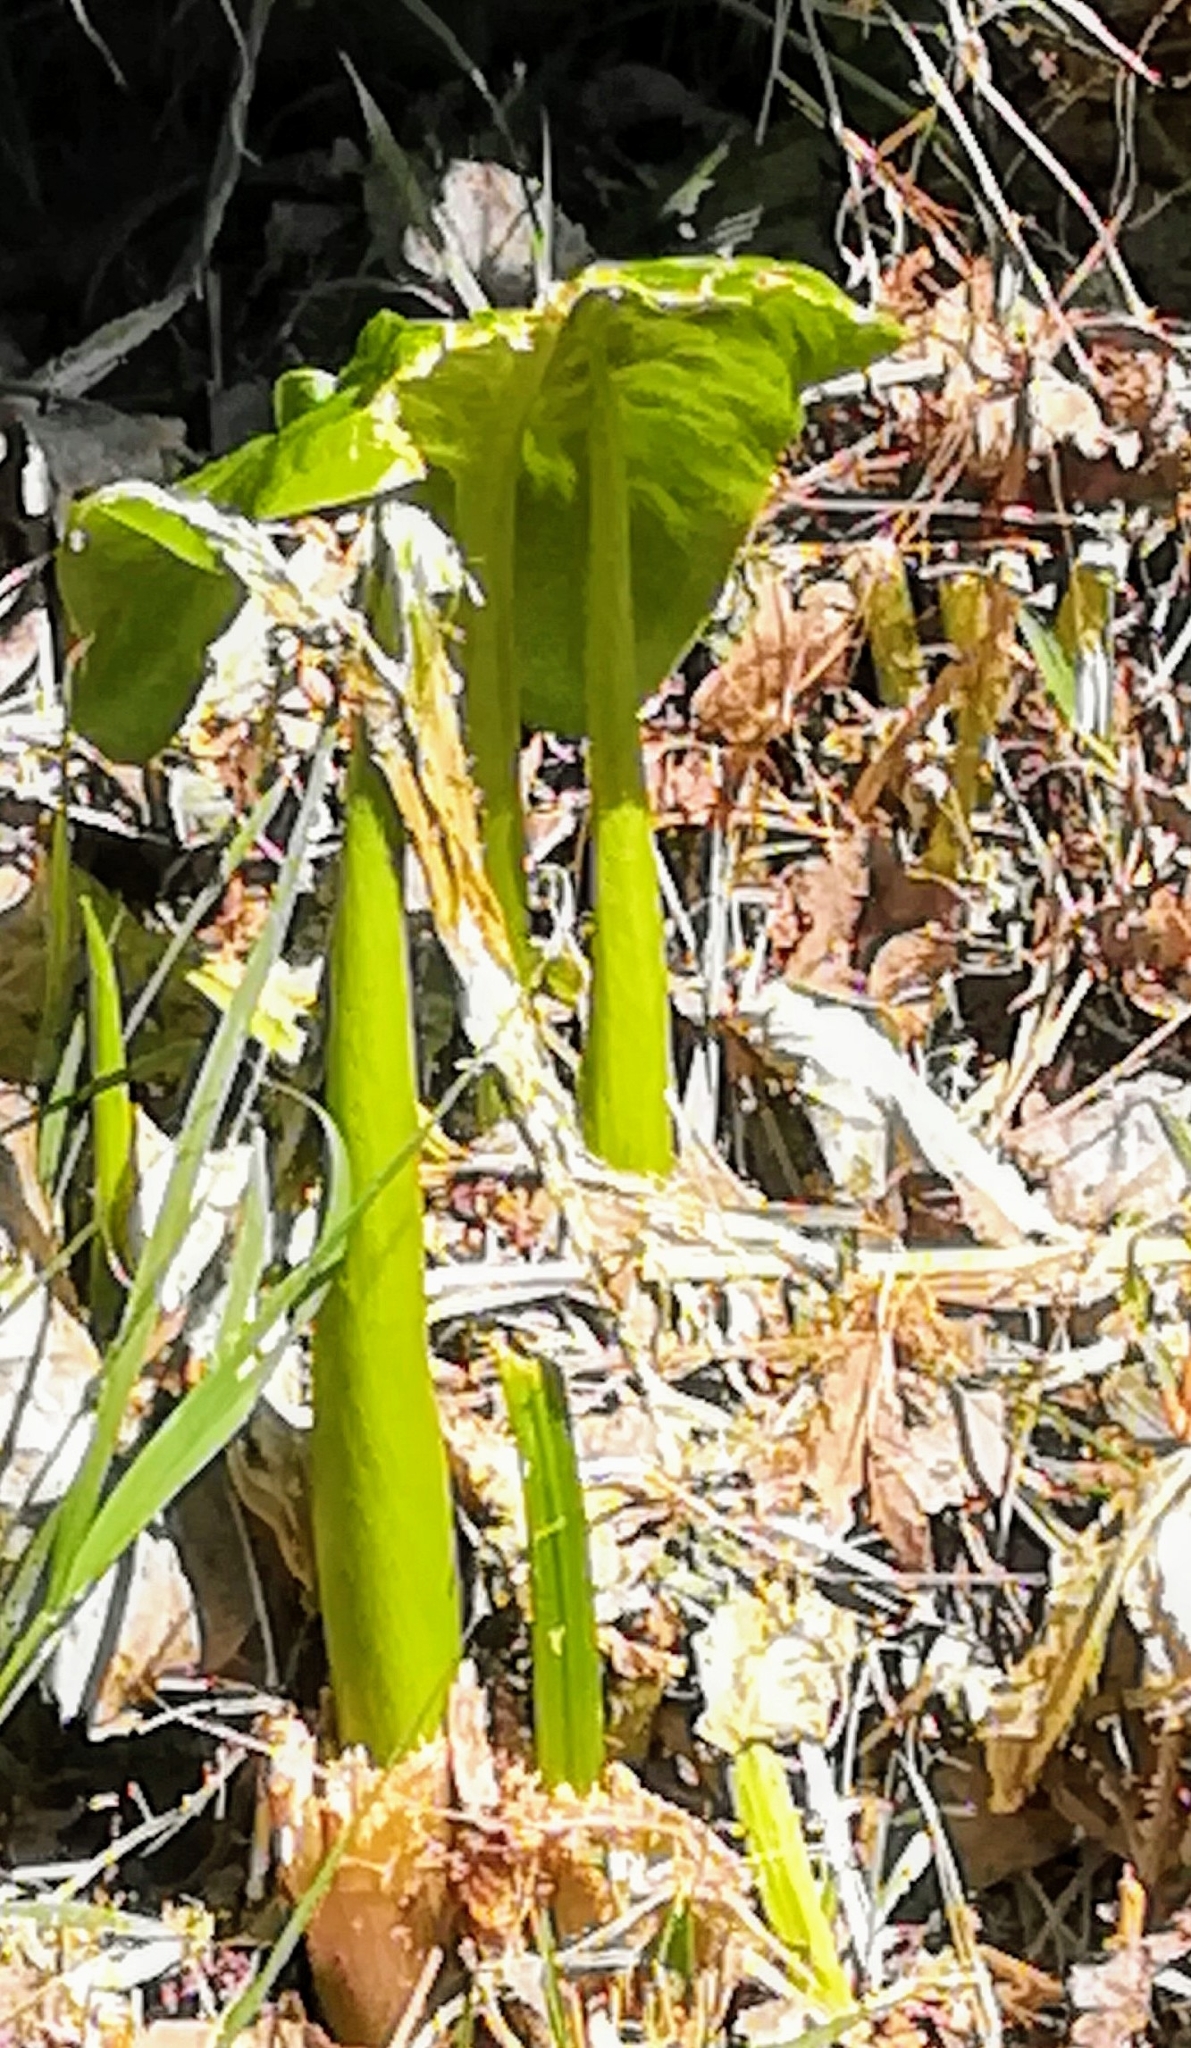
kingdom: Plantae
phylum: Tracheophyta
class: Liliopsida
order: Alismatales
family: Araceae
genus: Arum
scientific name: Arum italicum
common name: Italian lords-and-ladies
